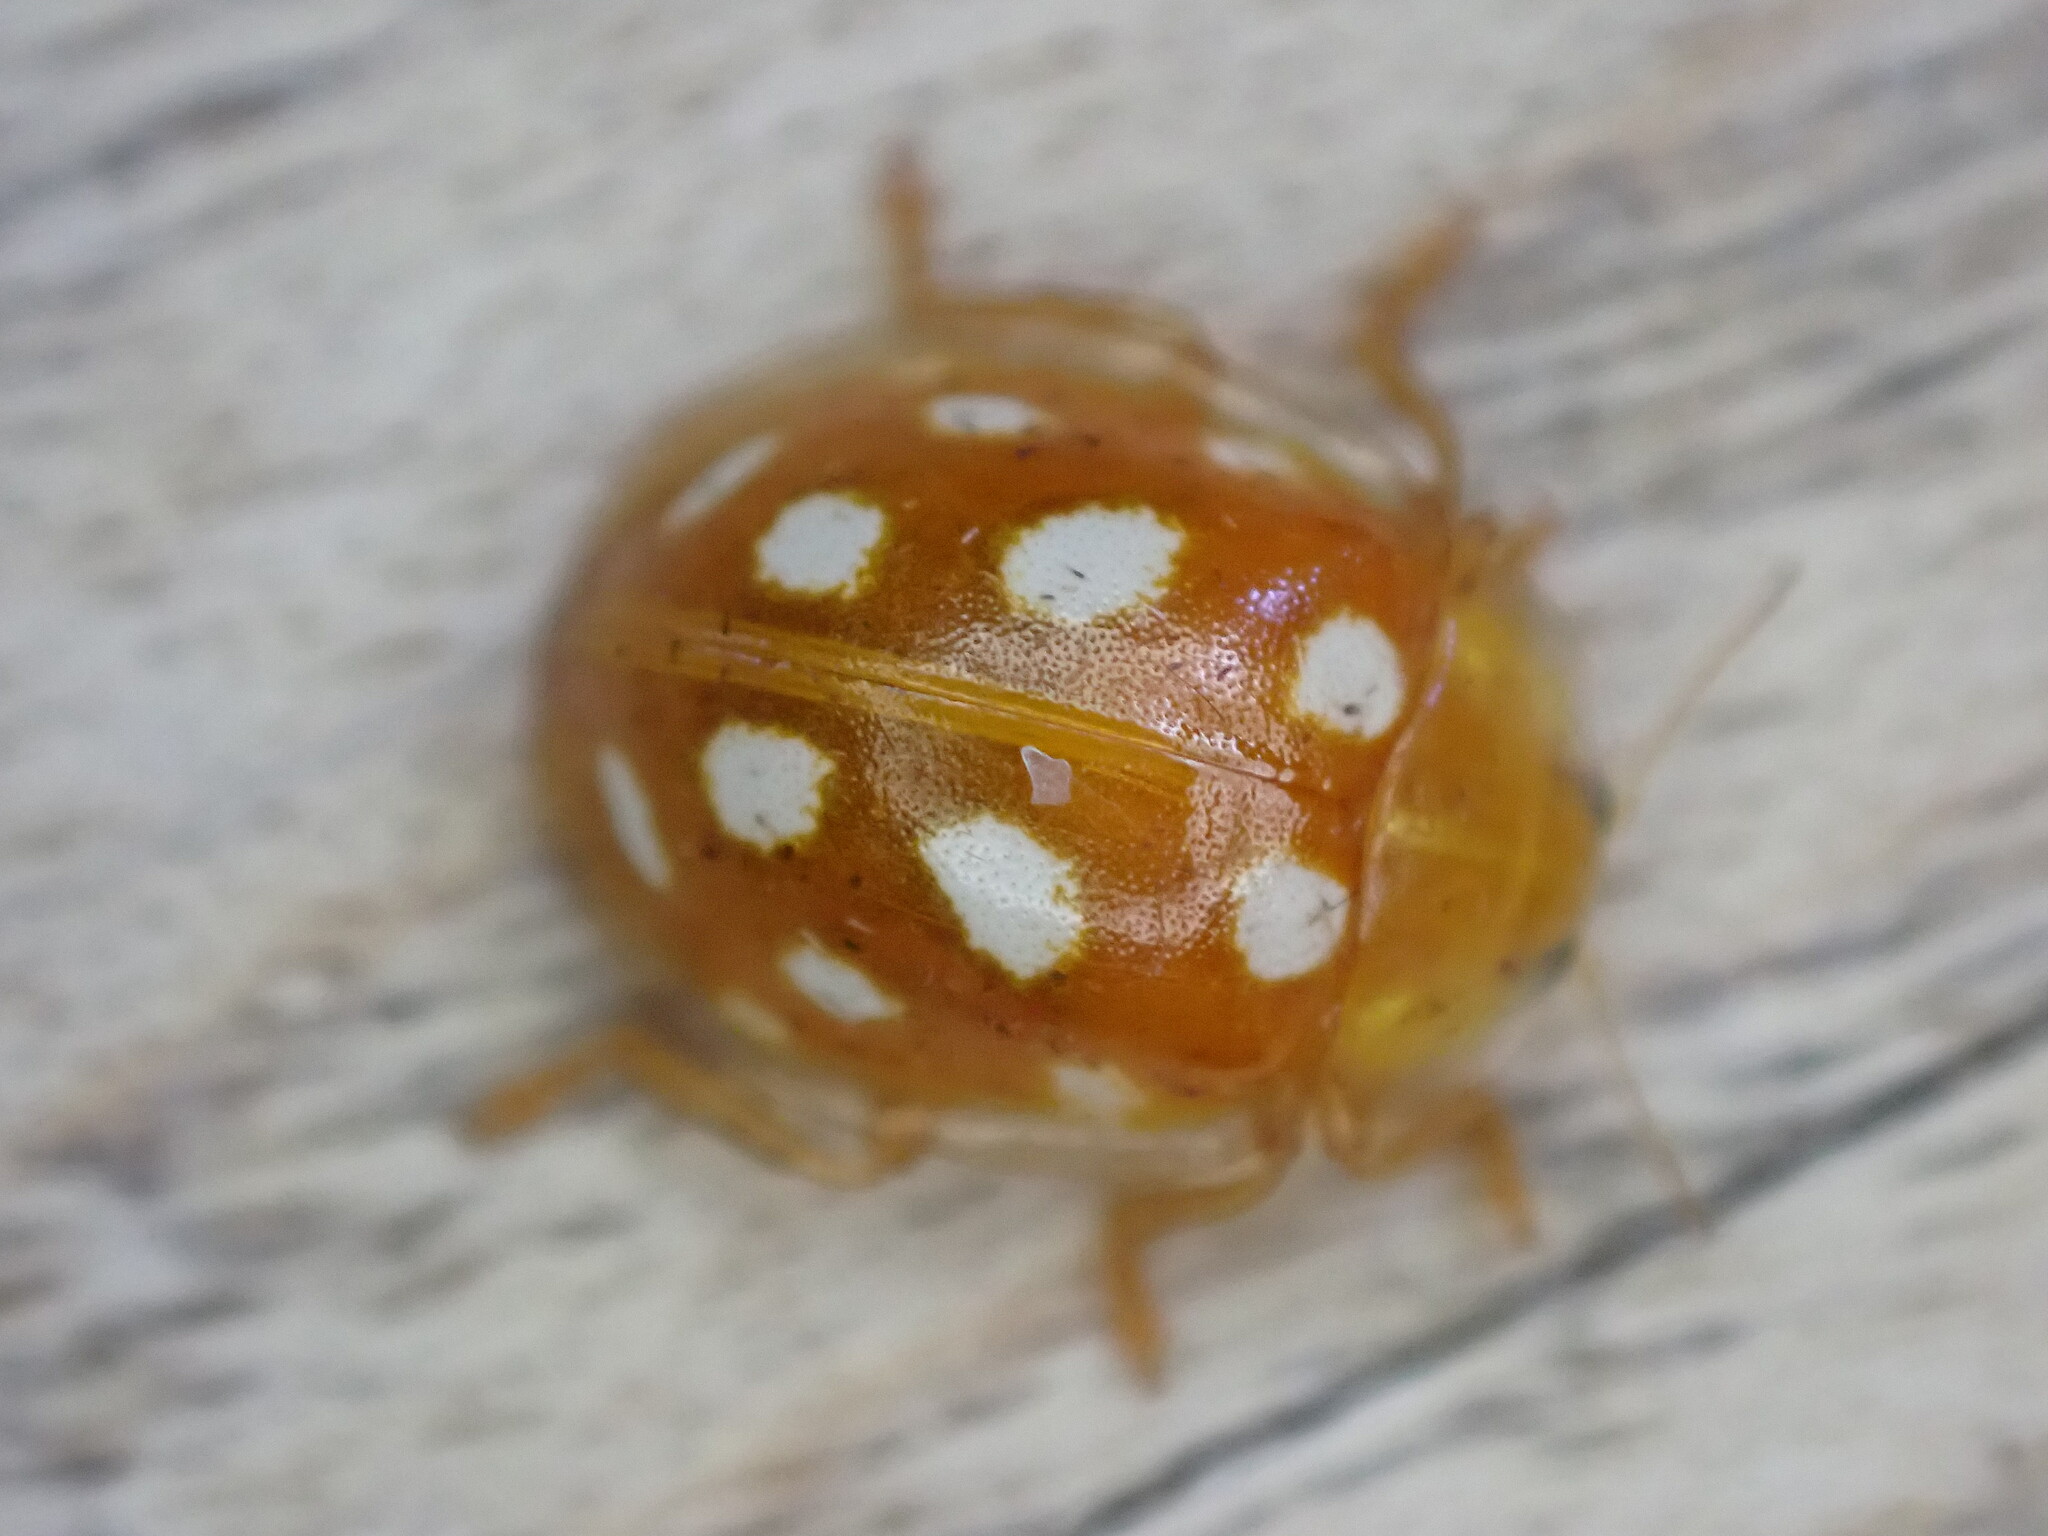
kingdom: Animalia
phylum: Arthropoda
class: Insecta
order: Coleoptera
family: Coccinellidae
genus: Halyzia
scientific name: Halyzia sedecimguttata
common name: Orange ladybird
